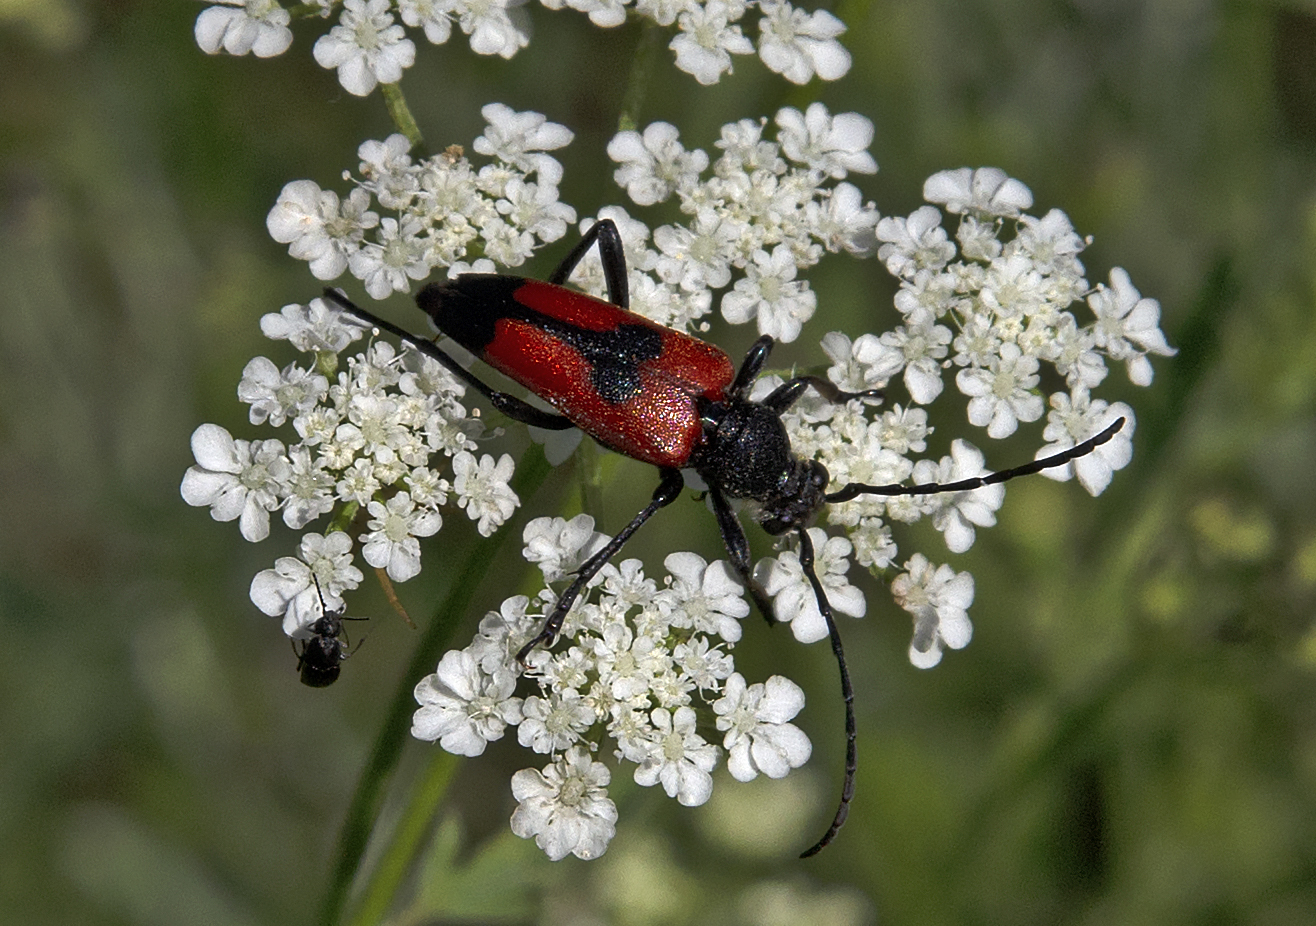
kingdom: Animalia
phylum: Arthropoda
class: Insecta
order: Coleoptera
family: Cerambycidae
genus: Stictoleptura
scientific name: Stictoleptura cordigera
